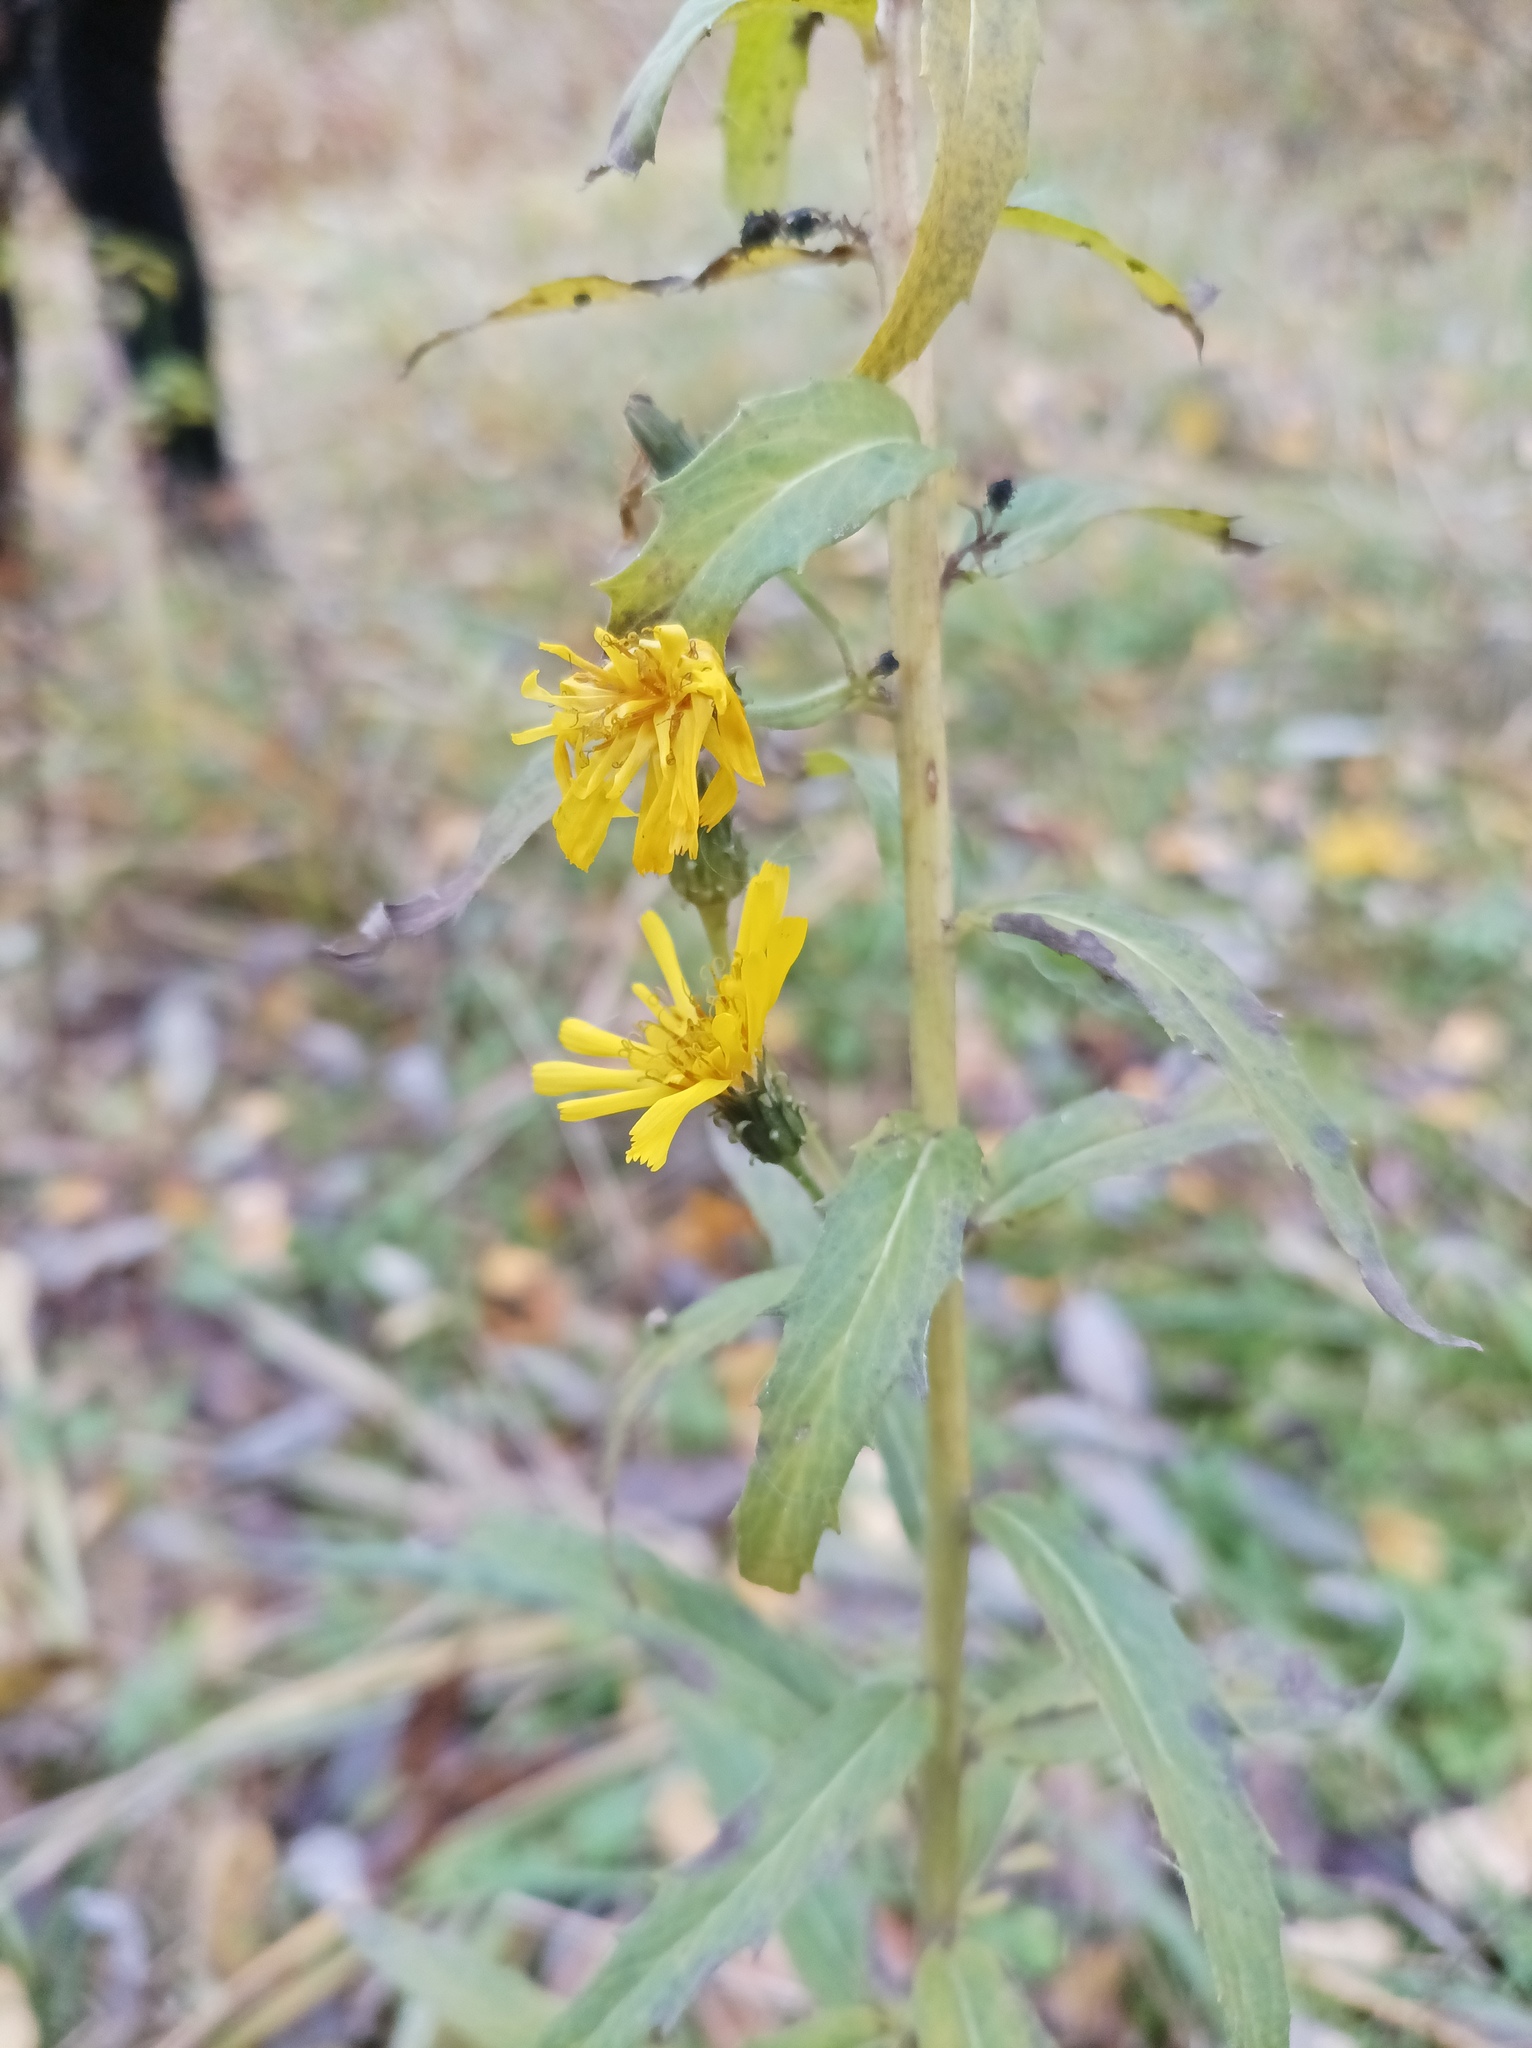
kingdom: Plantae
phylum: Tracheophyta
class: Magnoliopsida
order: Asterales
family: Asteraceae
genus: Hieracium
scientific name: Hieracium umbellatum
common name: Northern hawkweed
